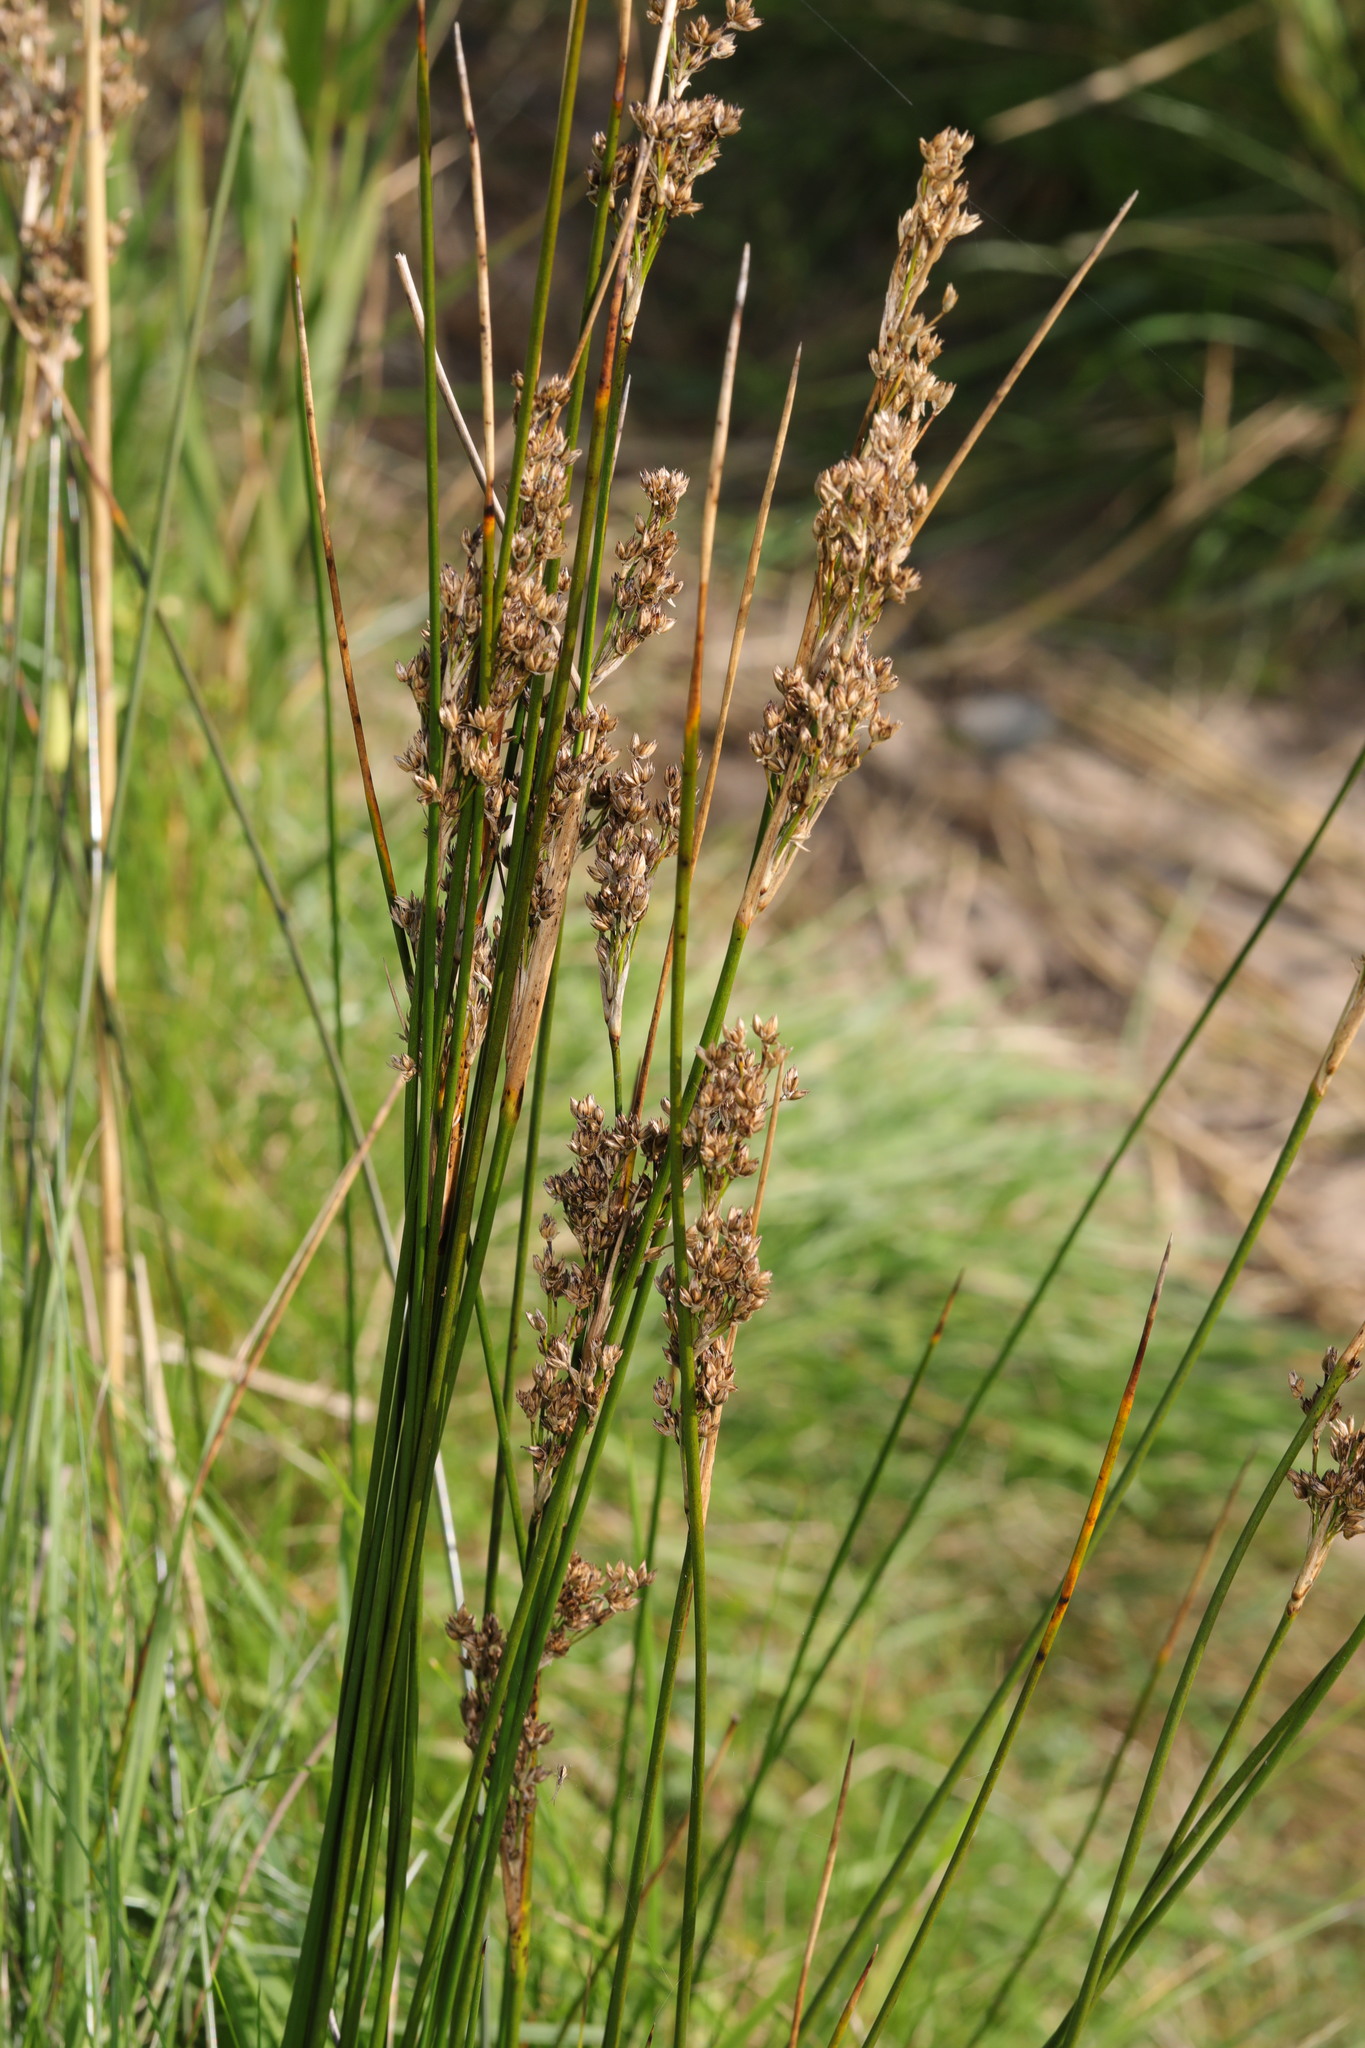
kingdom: Plantae
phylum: Tracheophyta
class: Liliopsida
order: Poales
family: Juncaceae
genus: Juncus
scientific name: Juncus maritimus
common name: Sea rush
